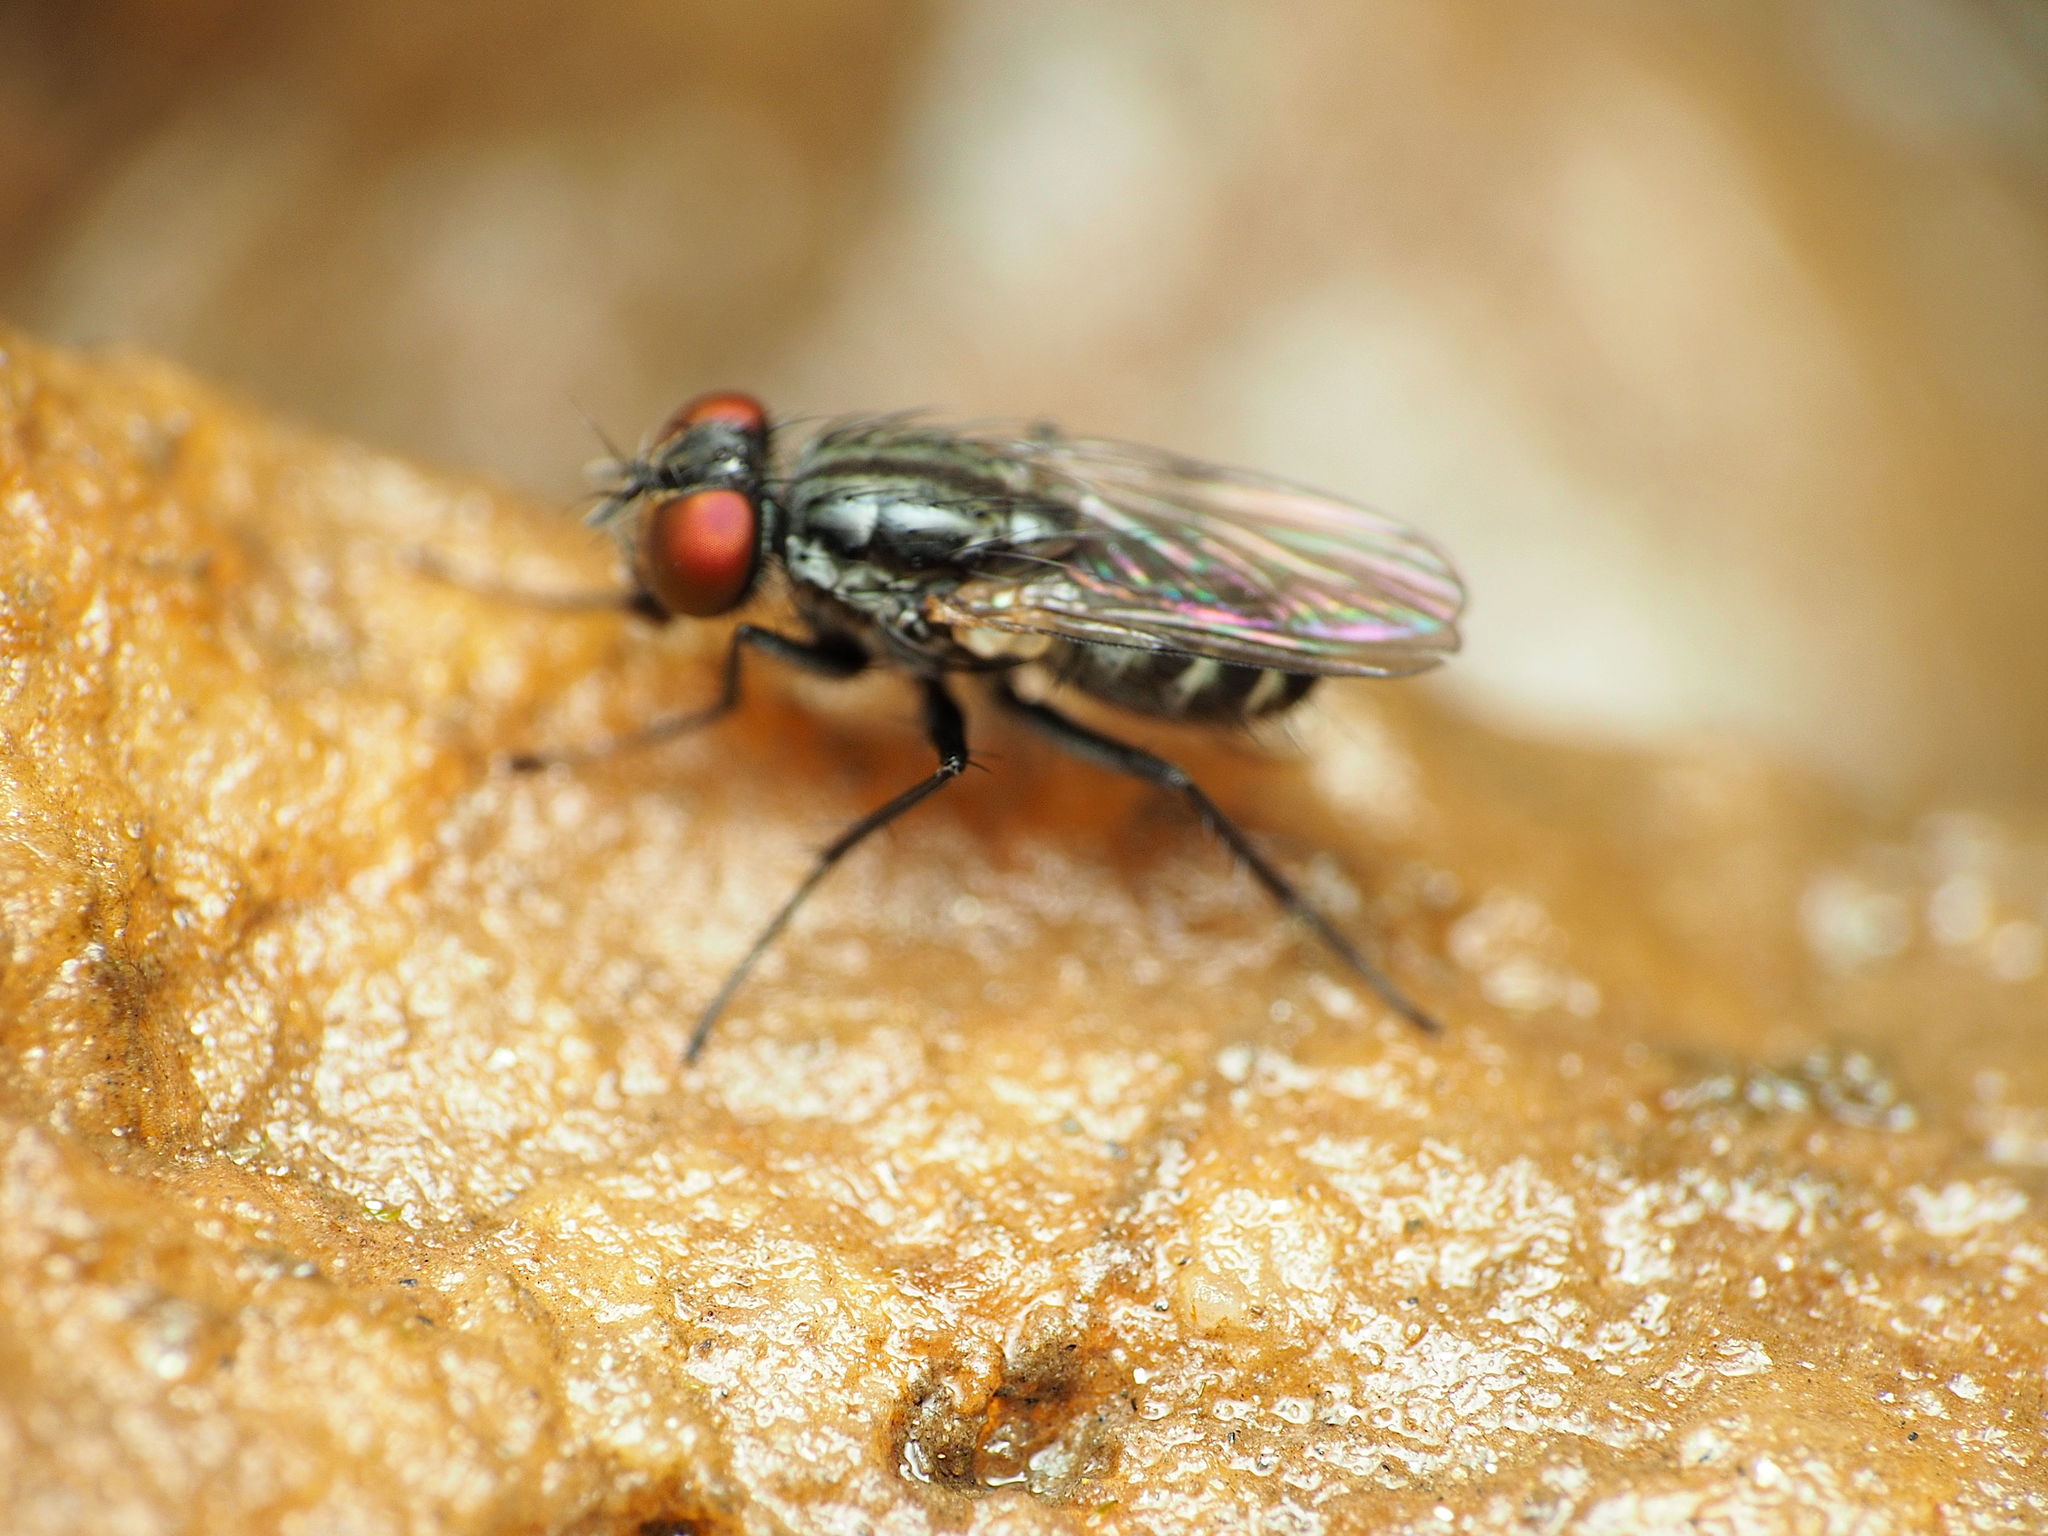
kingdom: Animalia
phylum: Arthropoda
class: Insecta
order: Diptera
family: Muscidae
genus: Lispe
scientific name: Lispe albitarsis
